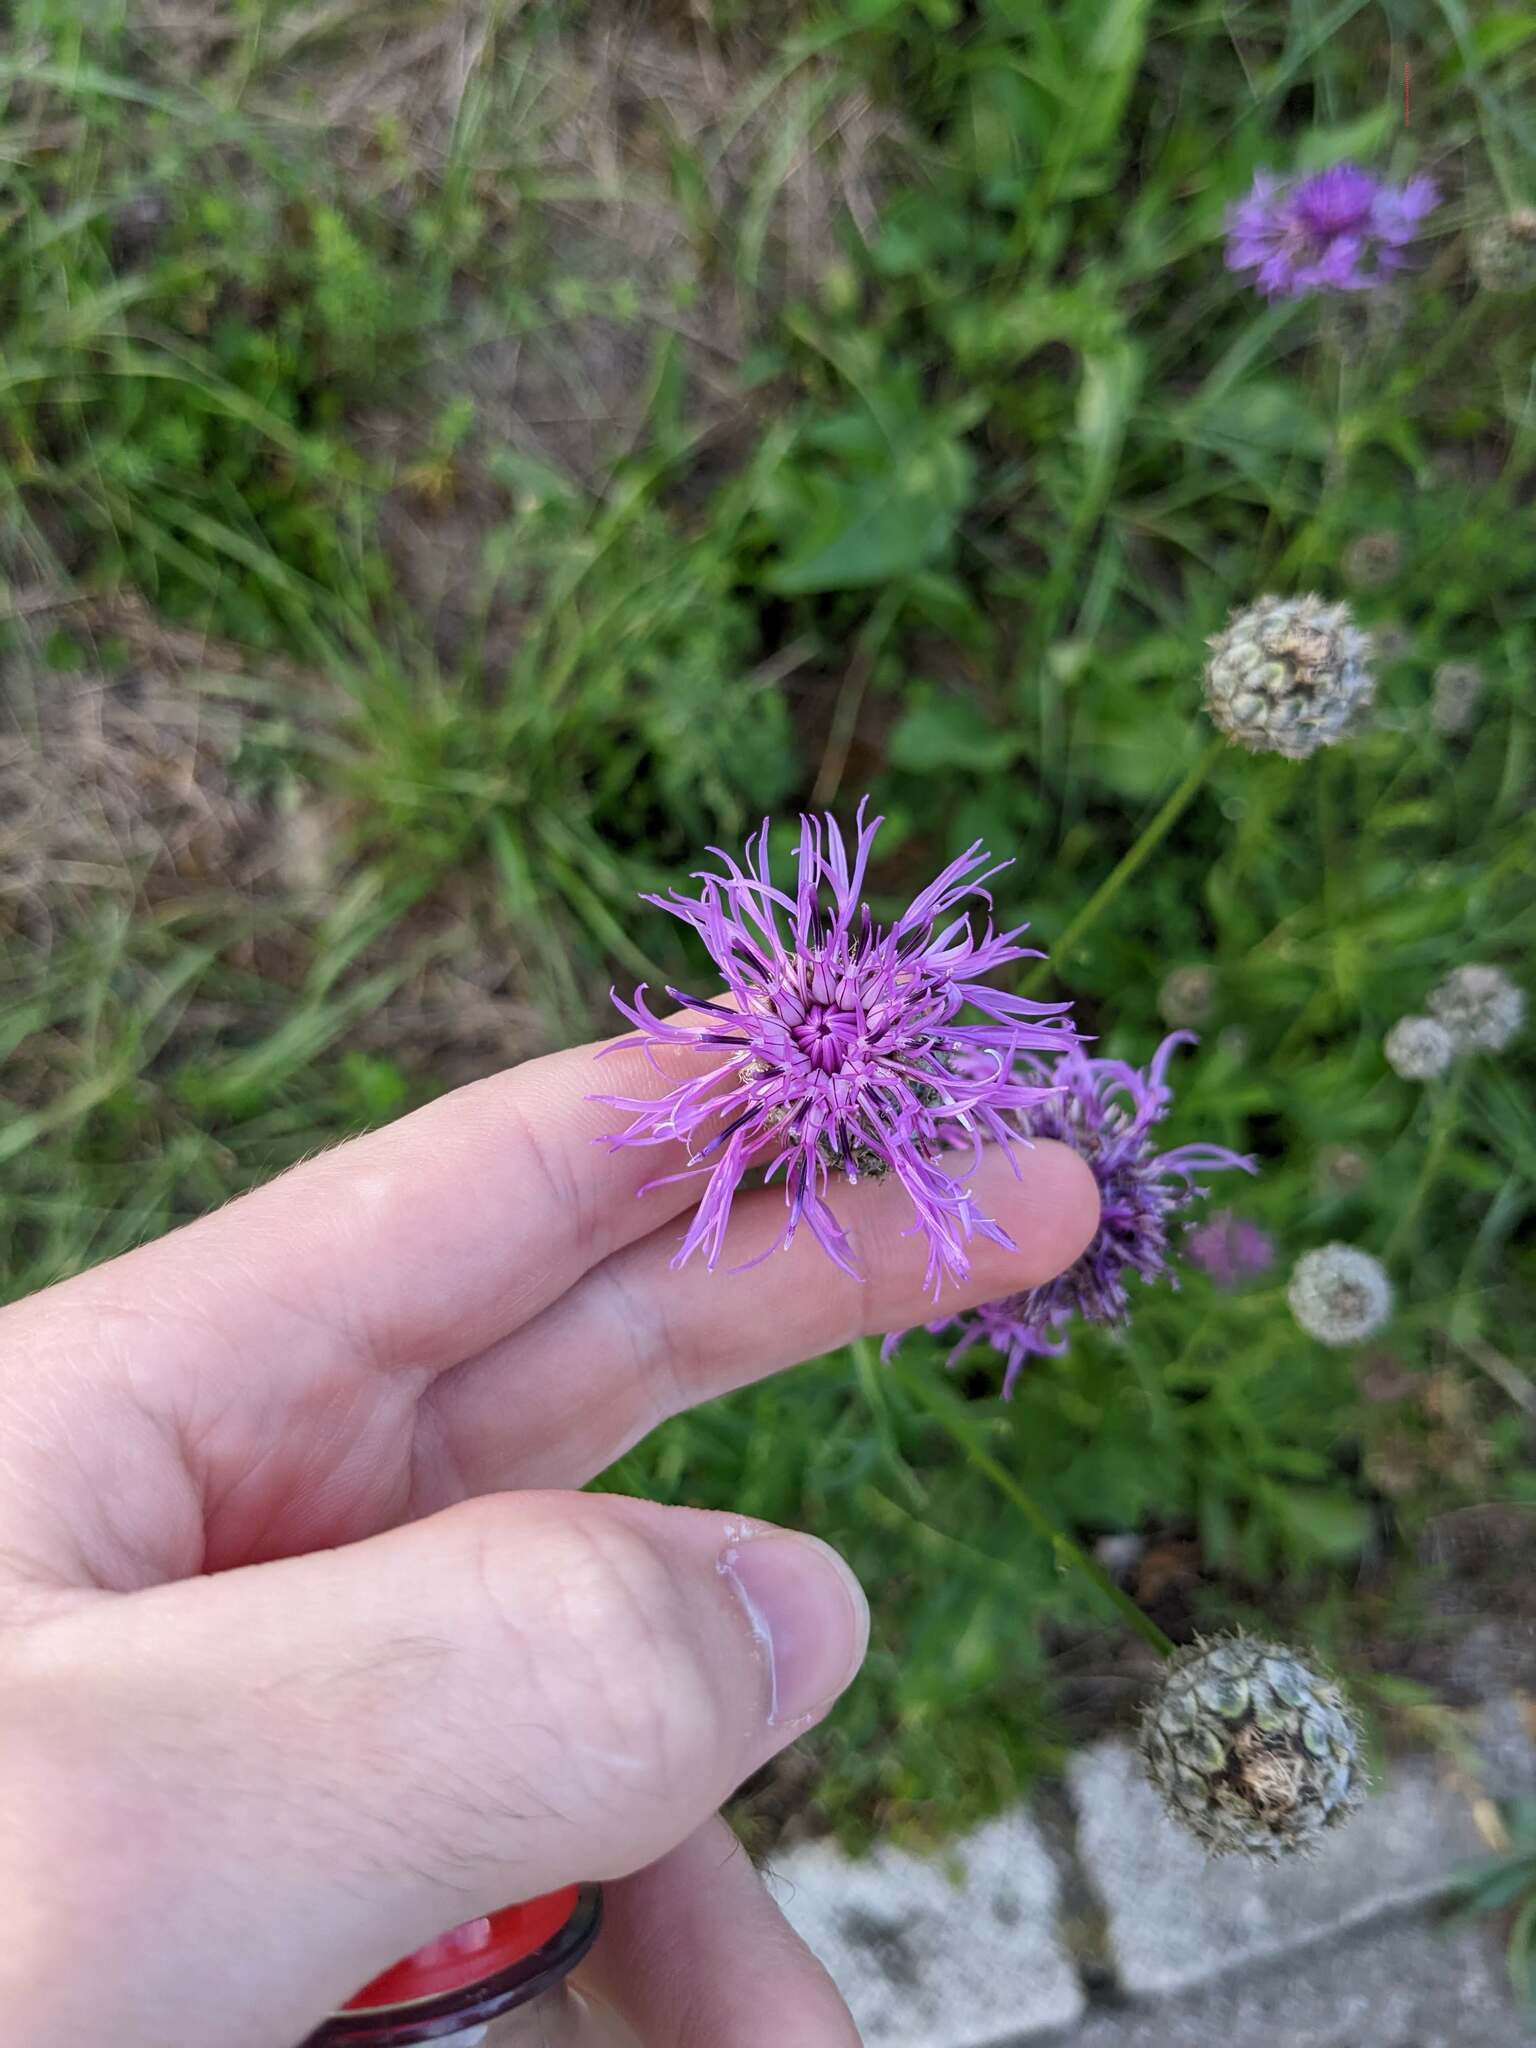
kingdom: Plantae
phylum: Tracheophyta
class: Magnoliopsida
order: Asterales
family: Asteraceae
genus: Centaurea
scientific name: Centaurea scabiosa
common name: Greater knapweed
